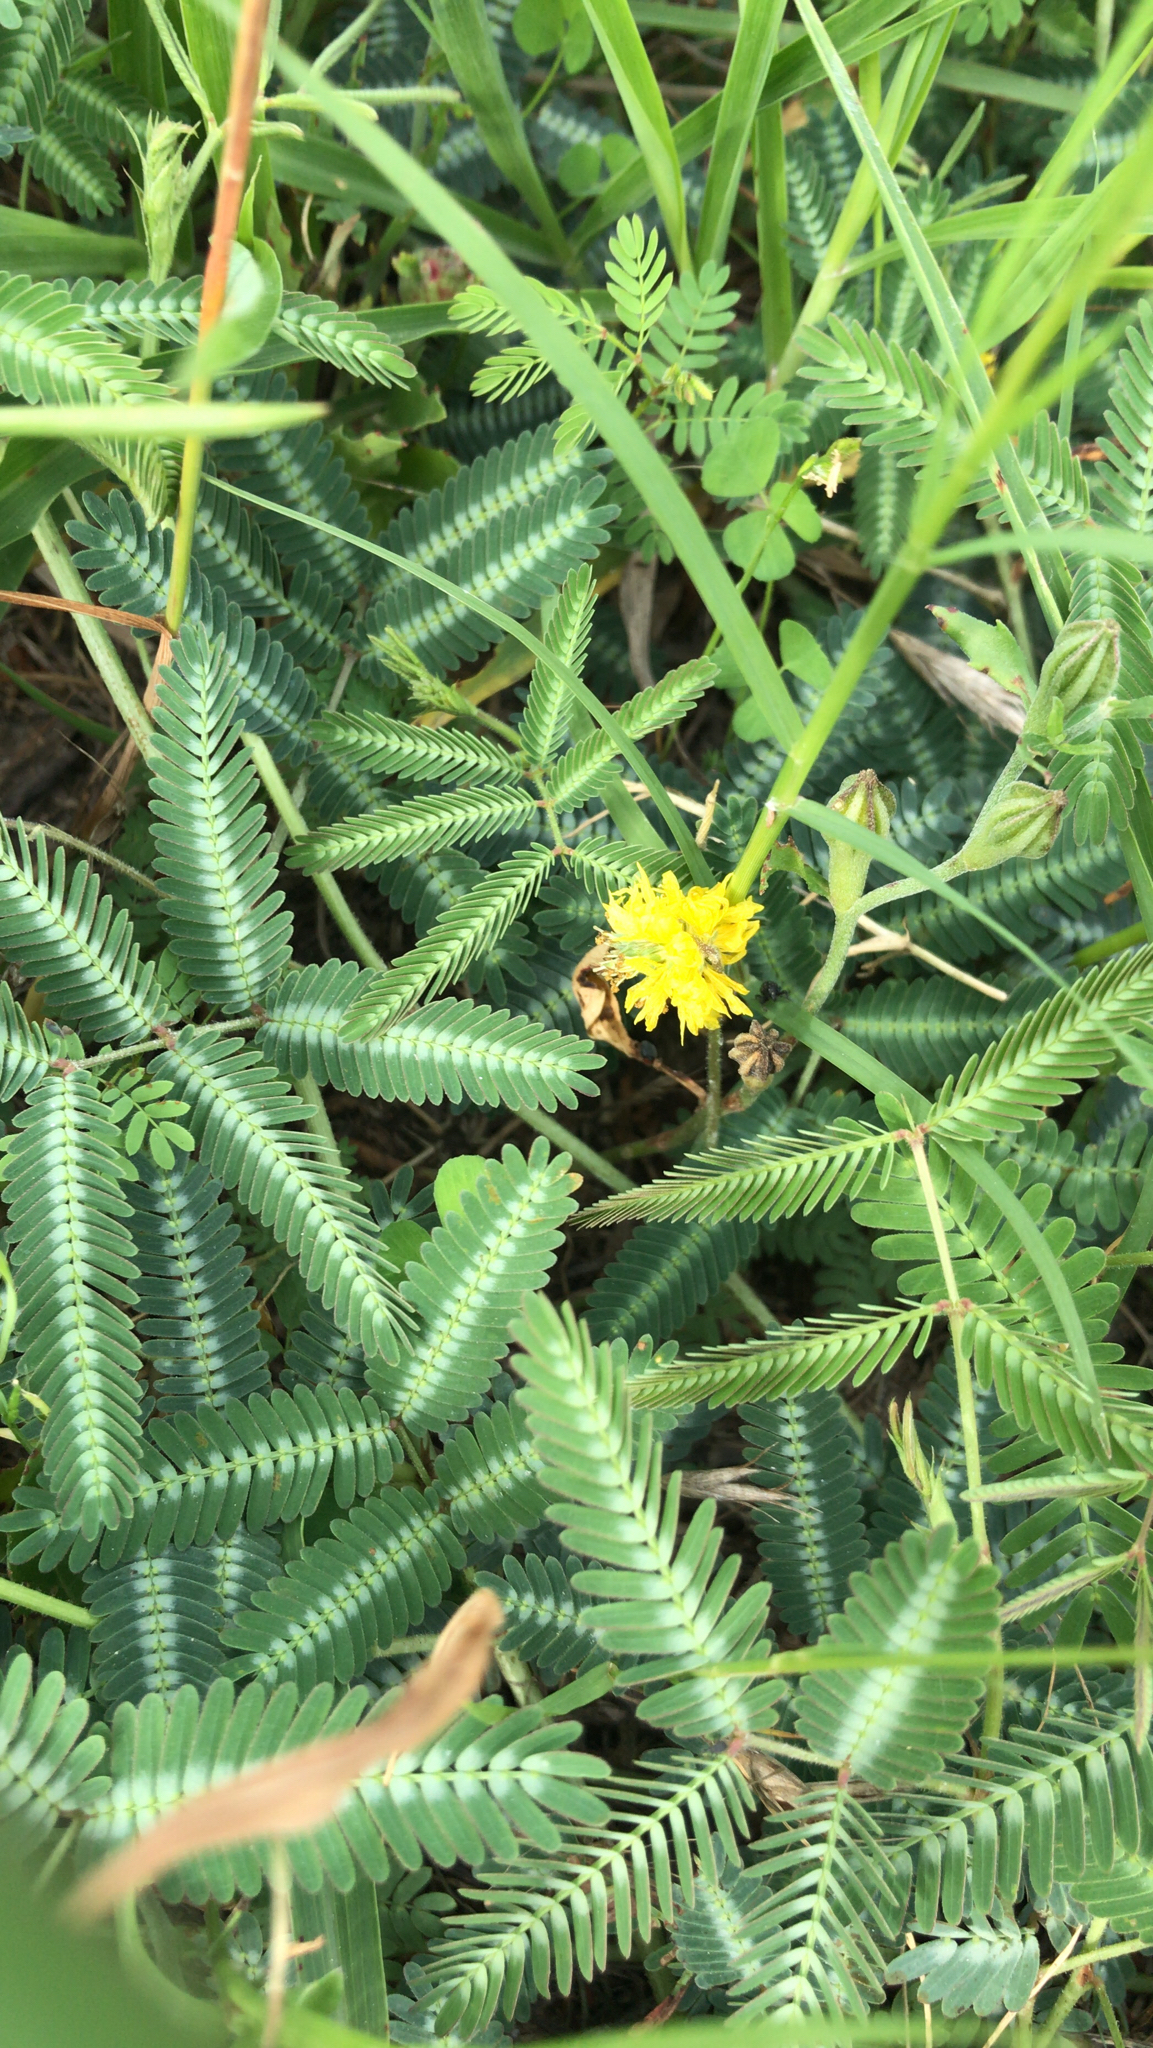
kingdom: Plantae
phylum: Tracheophyta
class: Magnoliopsida
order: Fabales
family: Fabaceae
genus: Neptunia
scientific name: Neptunia pubescens
